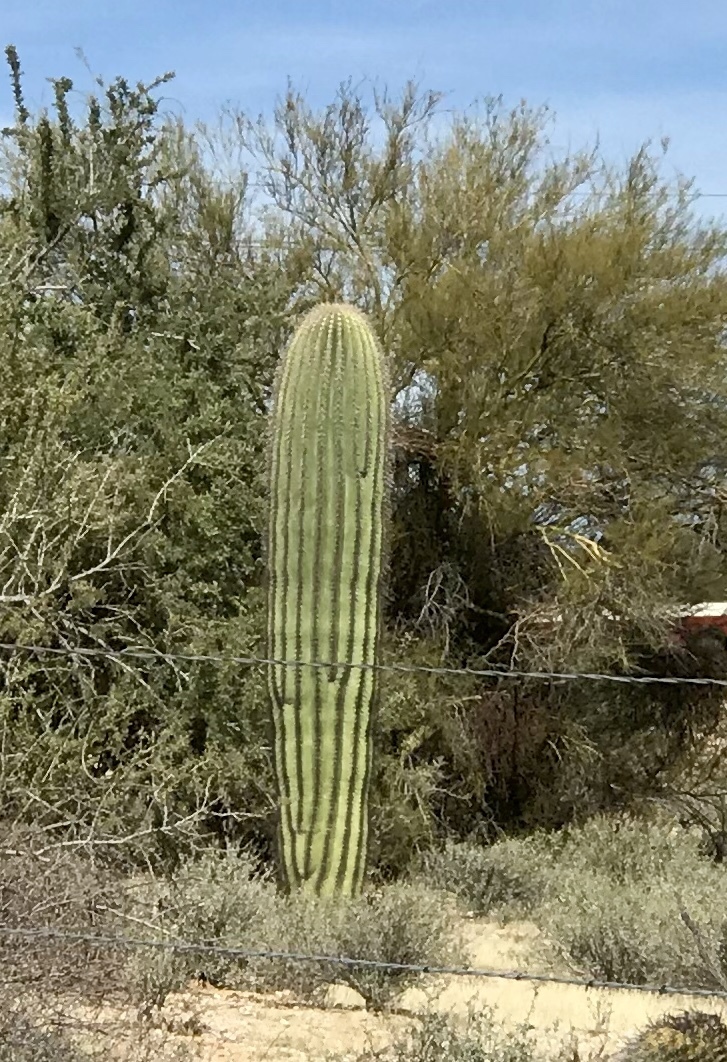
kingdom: Plantae
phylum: Tracheophyta
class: Magnoliopsida
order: Caryophyllales
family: Cactaceae
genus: Carnegiea
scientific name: Carnegiea gigantea
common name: Saguaro
